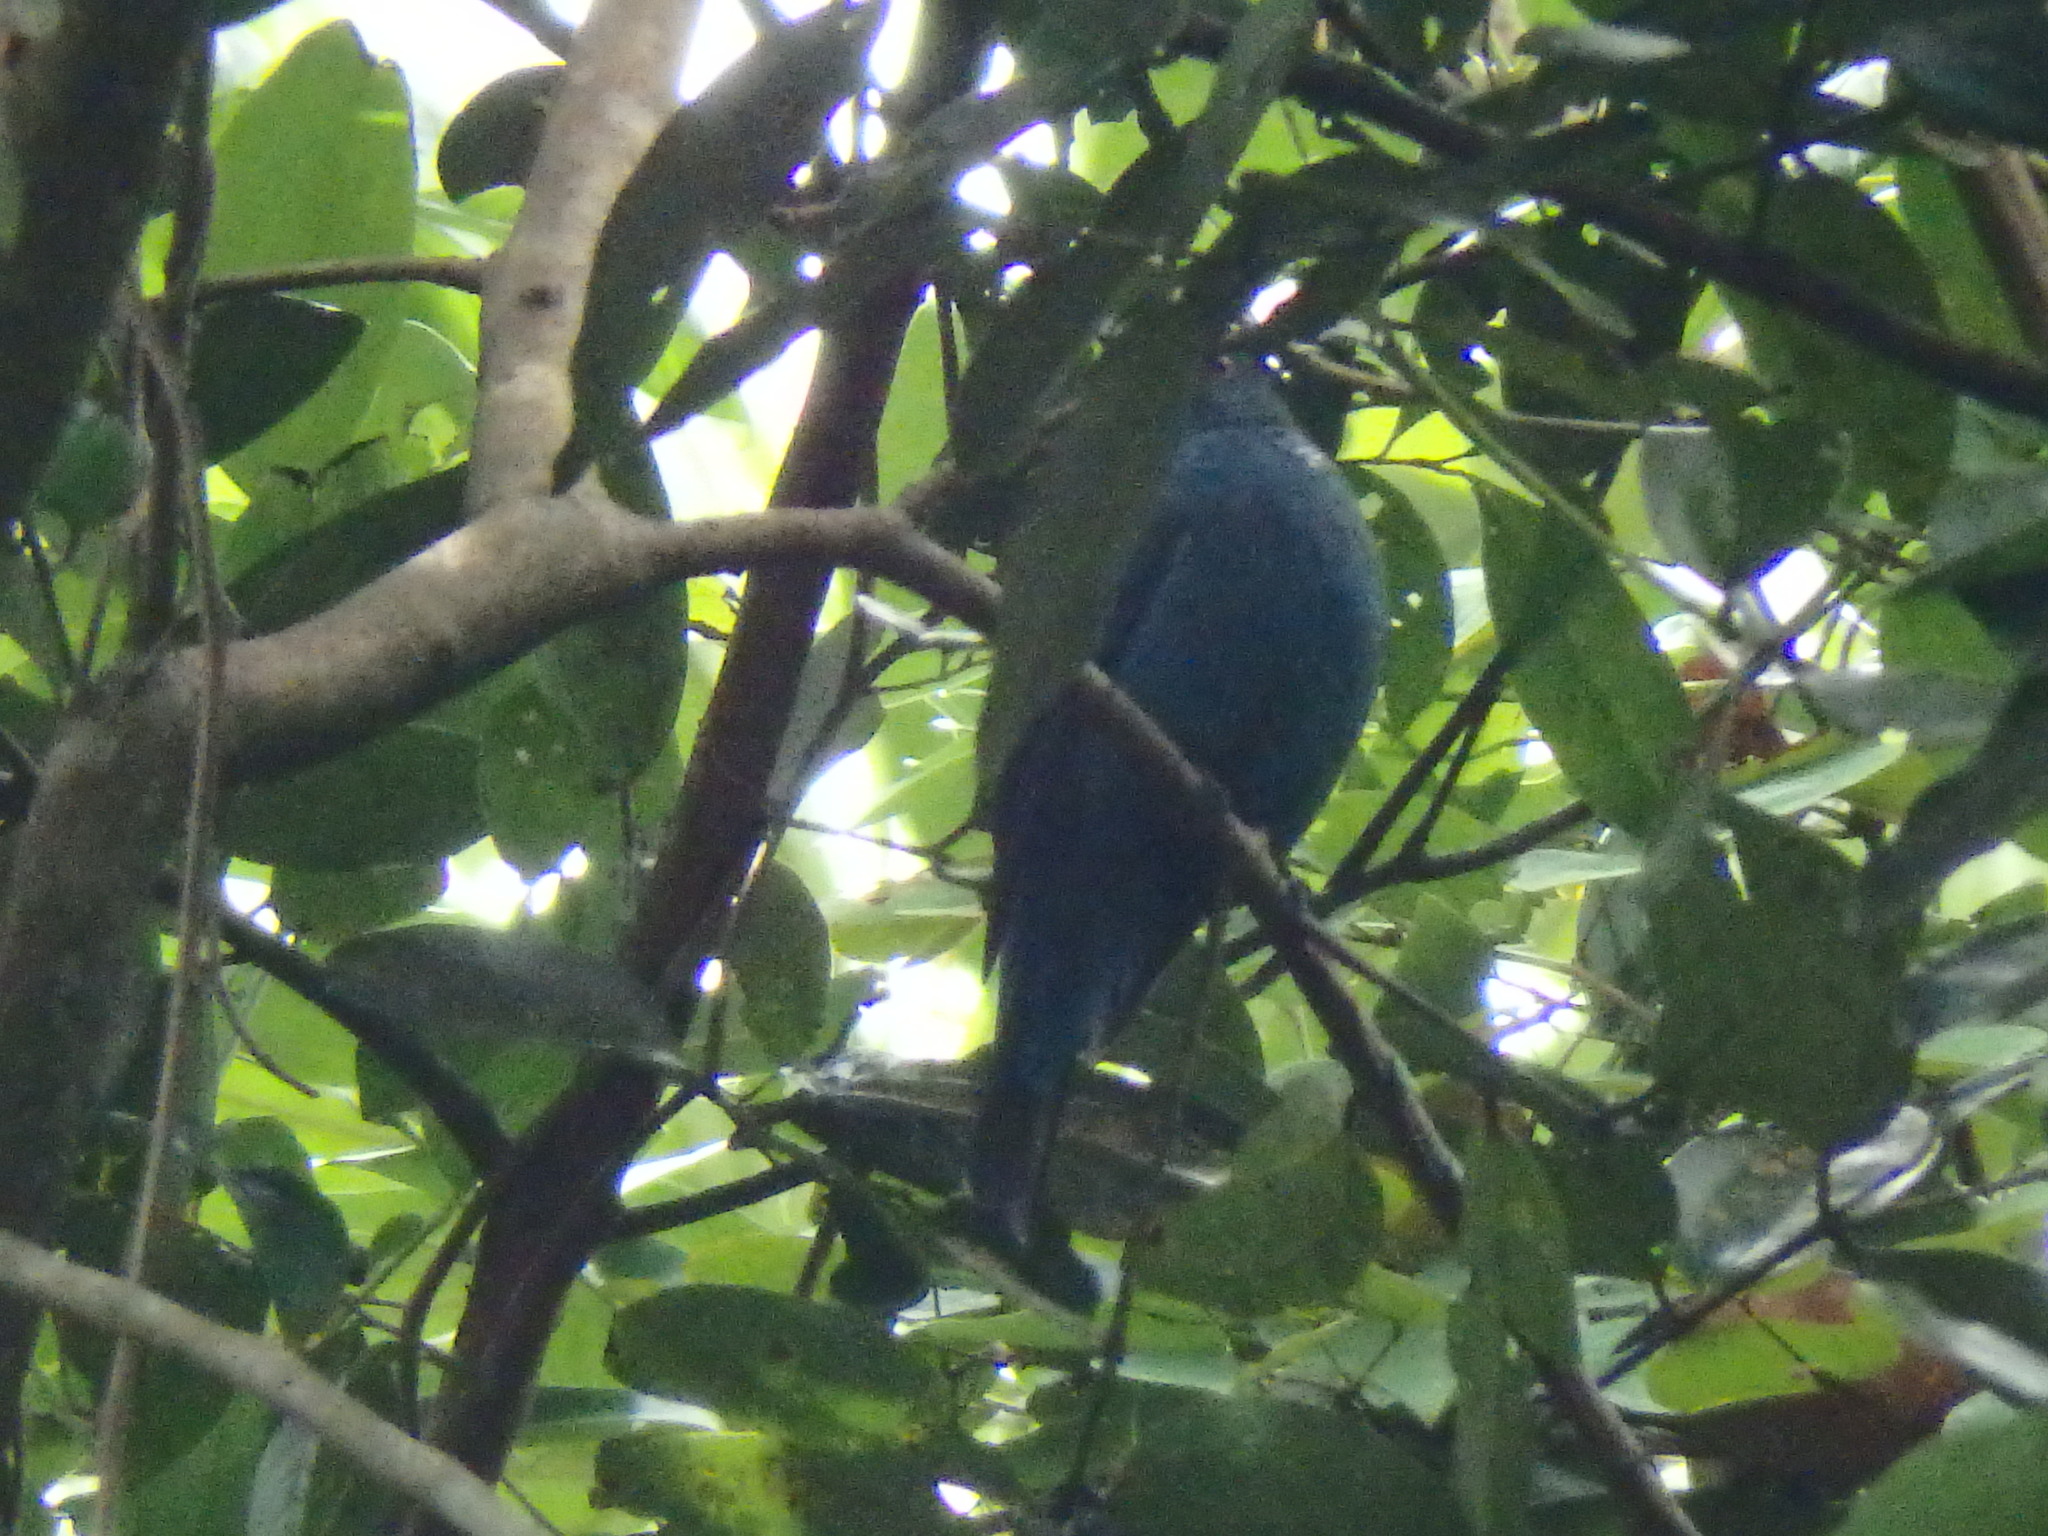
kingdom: Animalia
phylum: Chordata
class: Aves
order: Passeriformes
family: Irenidae
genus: Irena
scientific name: Irena puella
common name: Asian fairy-bluebird
